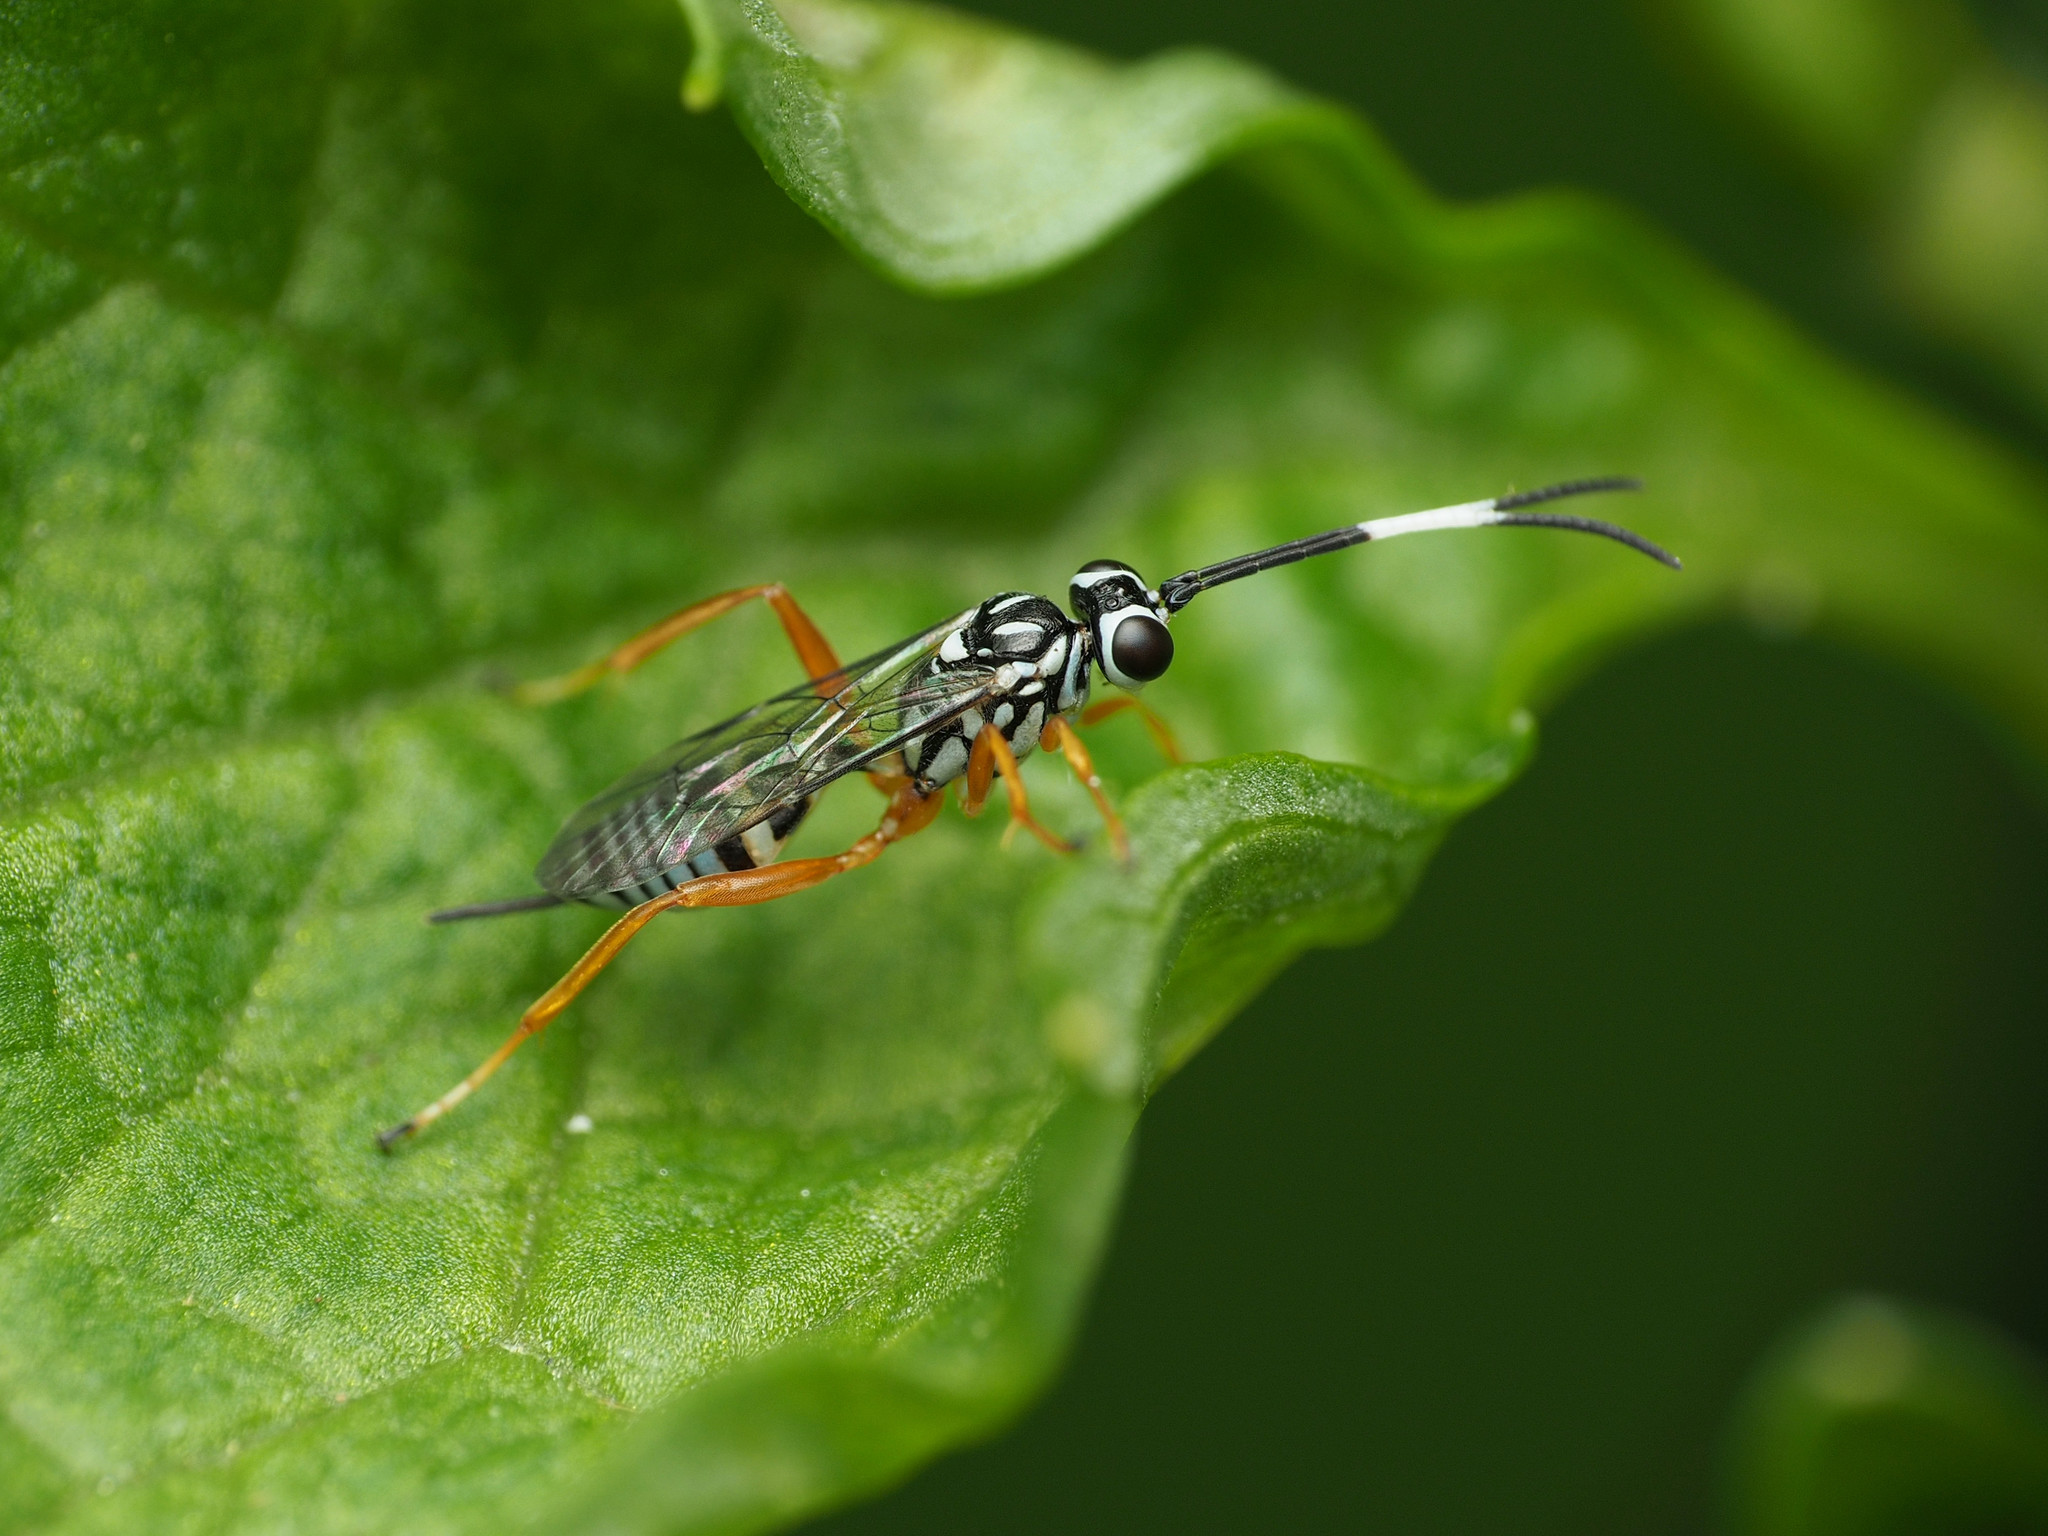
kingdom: Animalia
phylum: Arthropoda
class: Insecta
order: Hymenoptera
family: Ichneumonidae
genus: Lymeon
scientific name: Lymeon orbus
